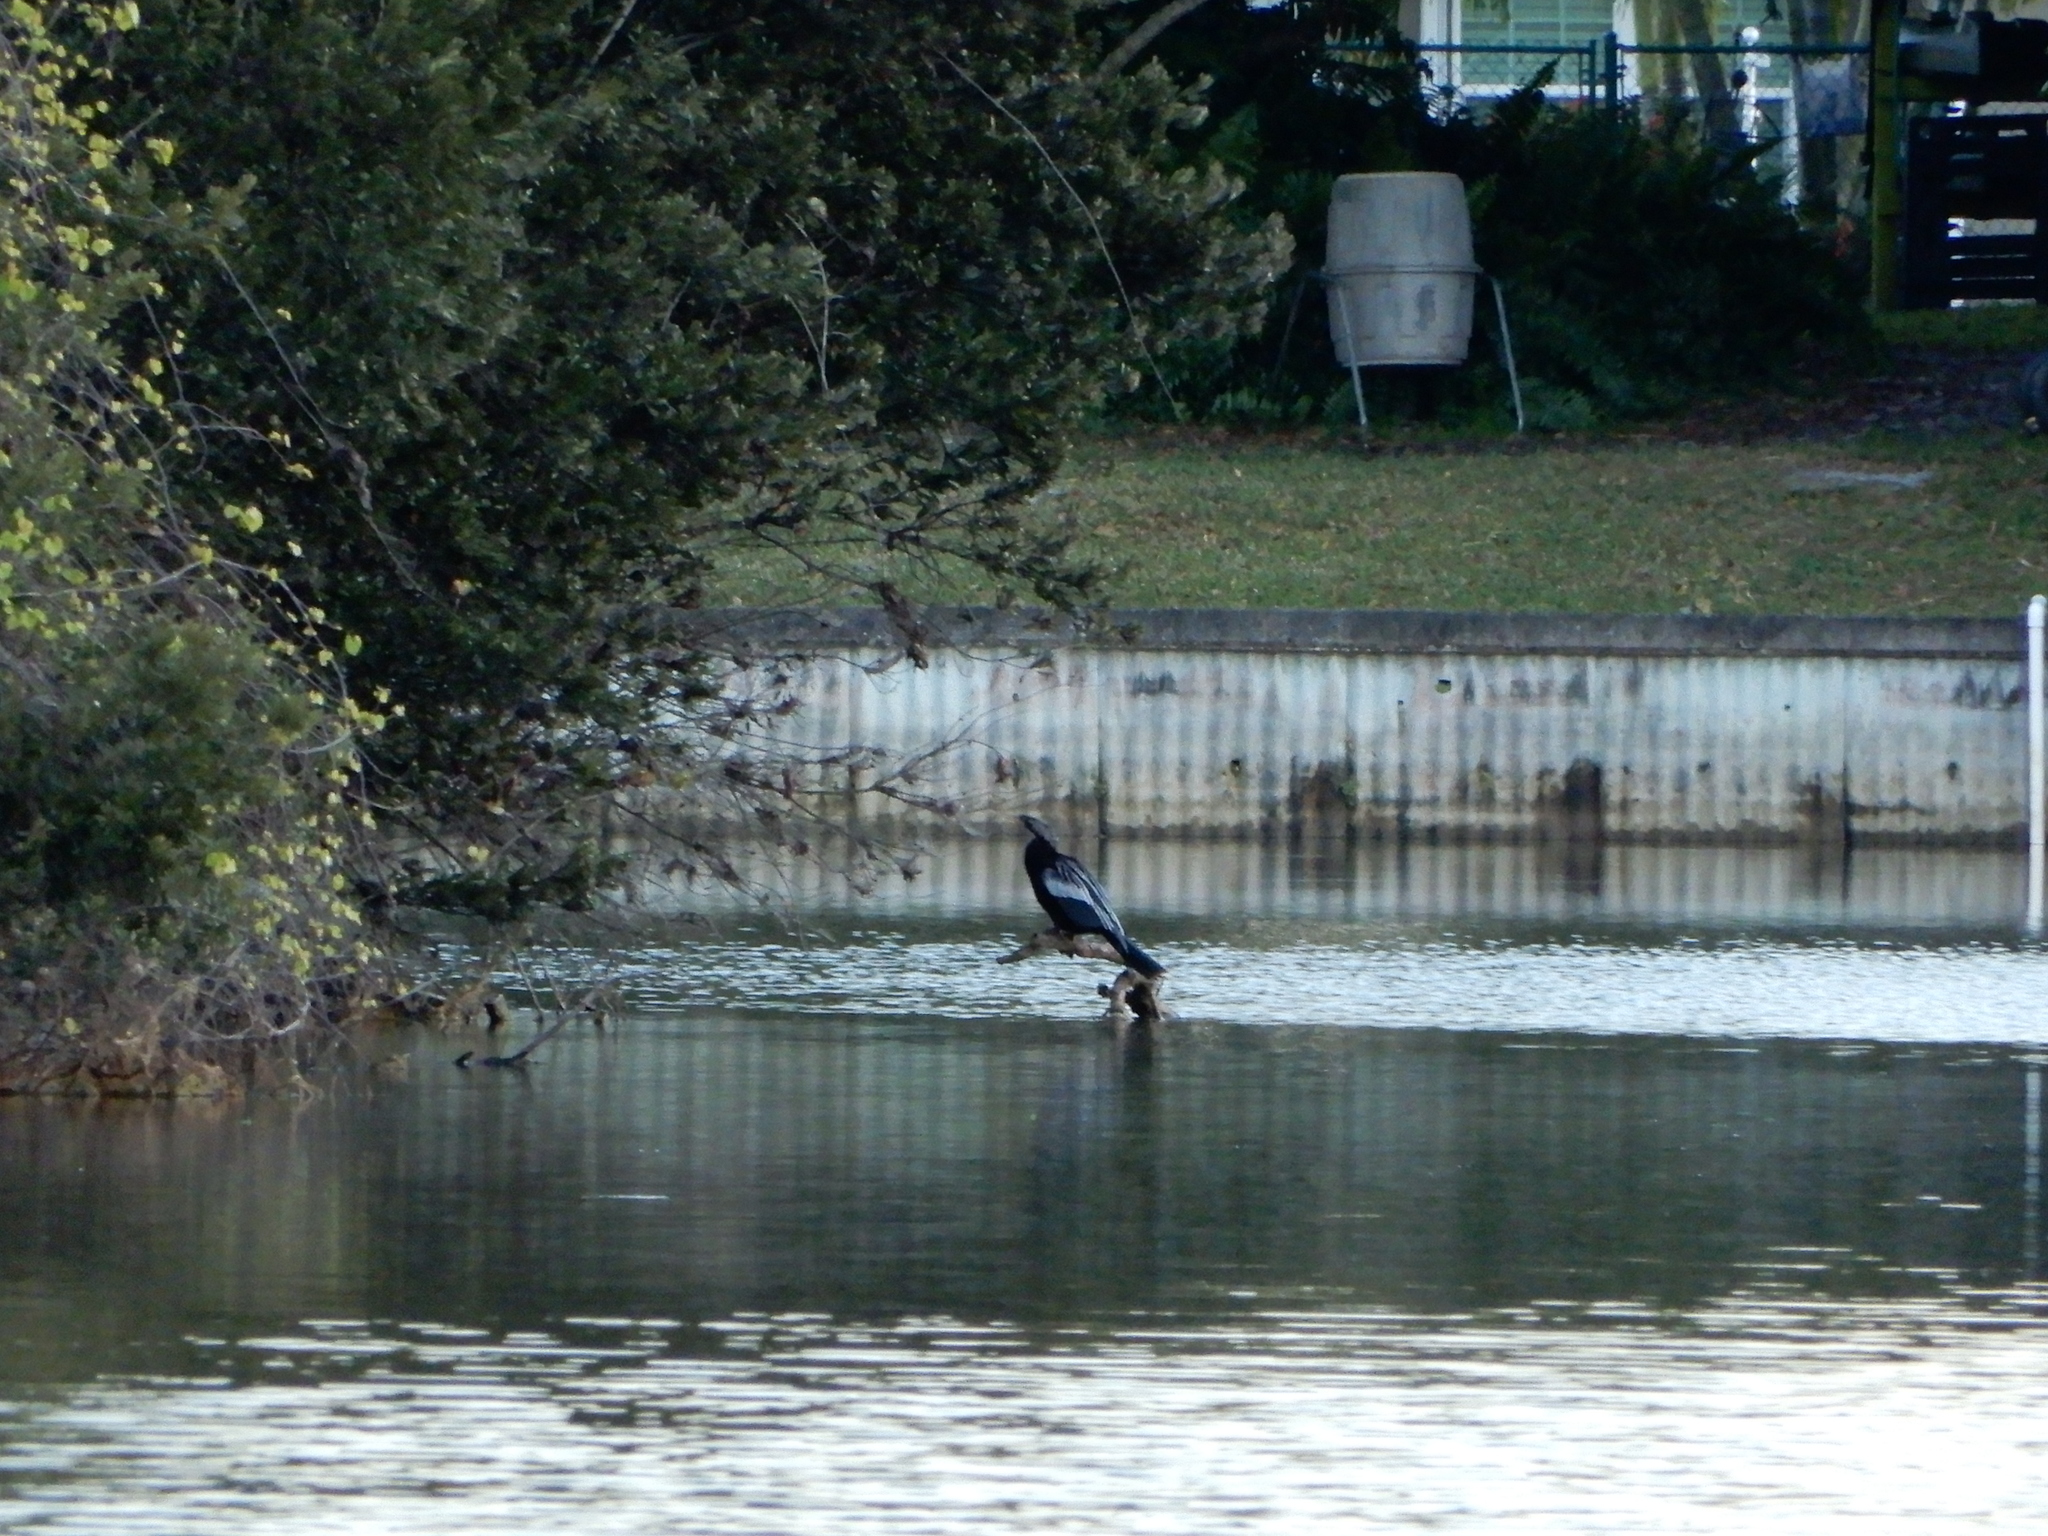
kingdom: Animalia
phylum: Chordata
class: Aves
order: Suliformes
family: Anhingidae
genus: Anhinga
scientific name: Anhinga anhinga
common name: Anhinga
